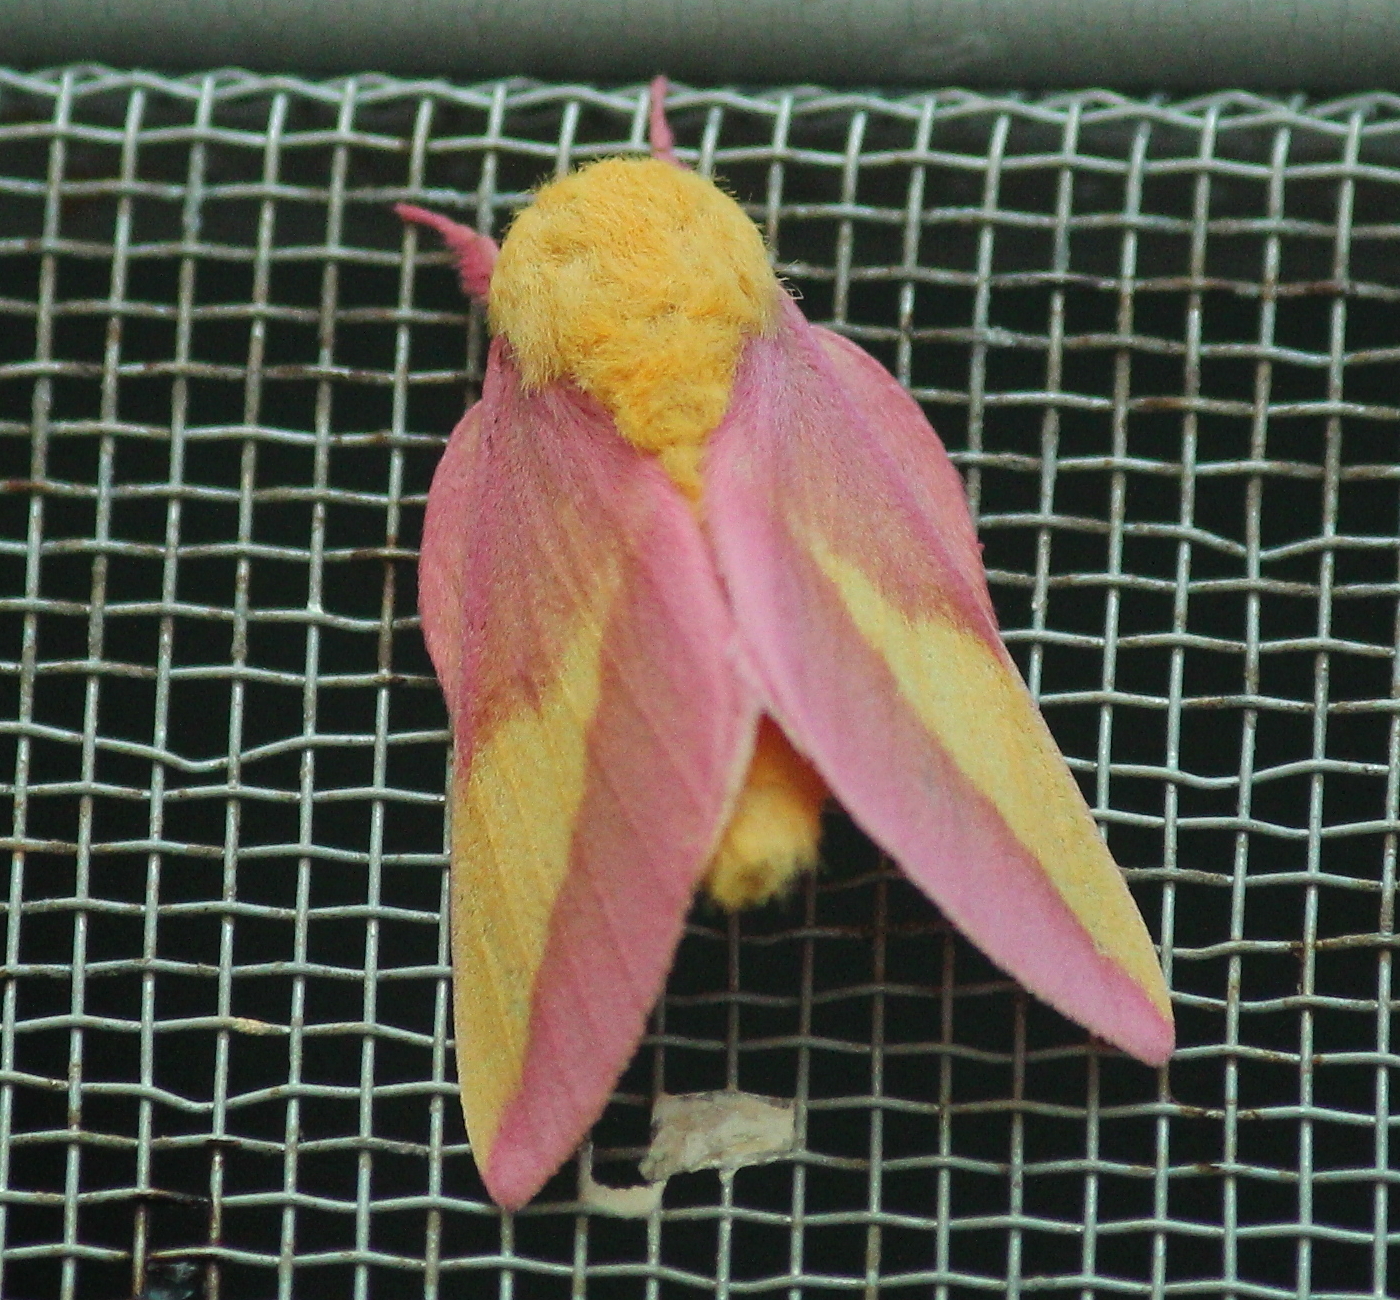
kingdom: Animalia
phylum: Arthropoda
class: Insecta
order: Lepidoptera
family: Saturniidae
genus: Dryocampa
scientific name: Dryocampa rubicunda
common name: Rosy maple moth
